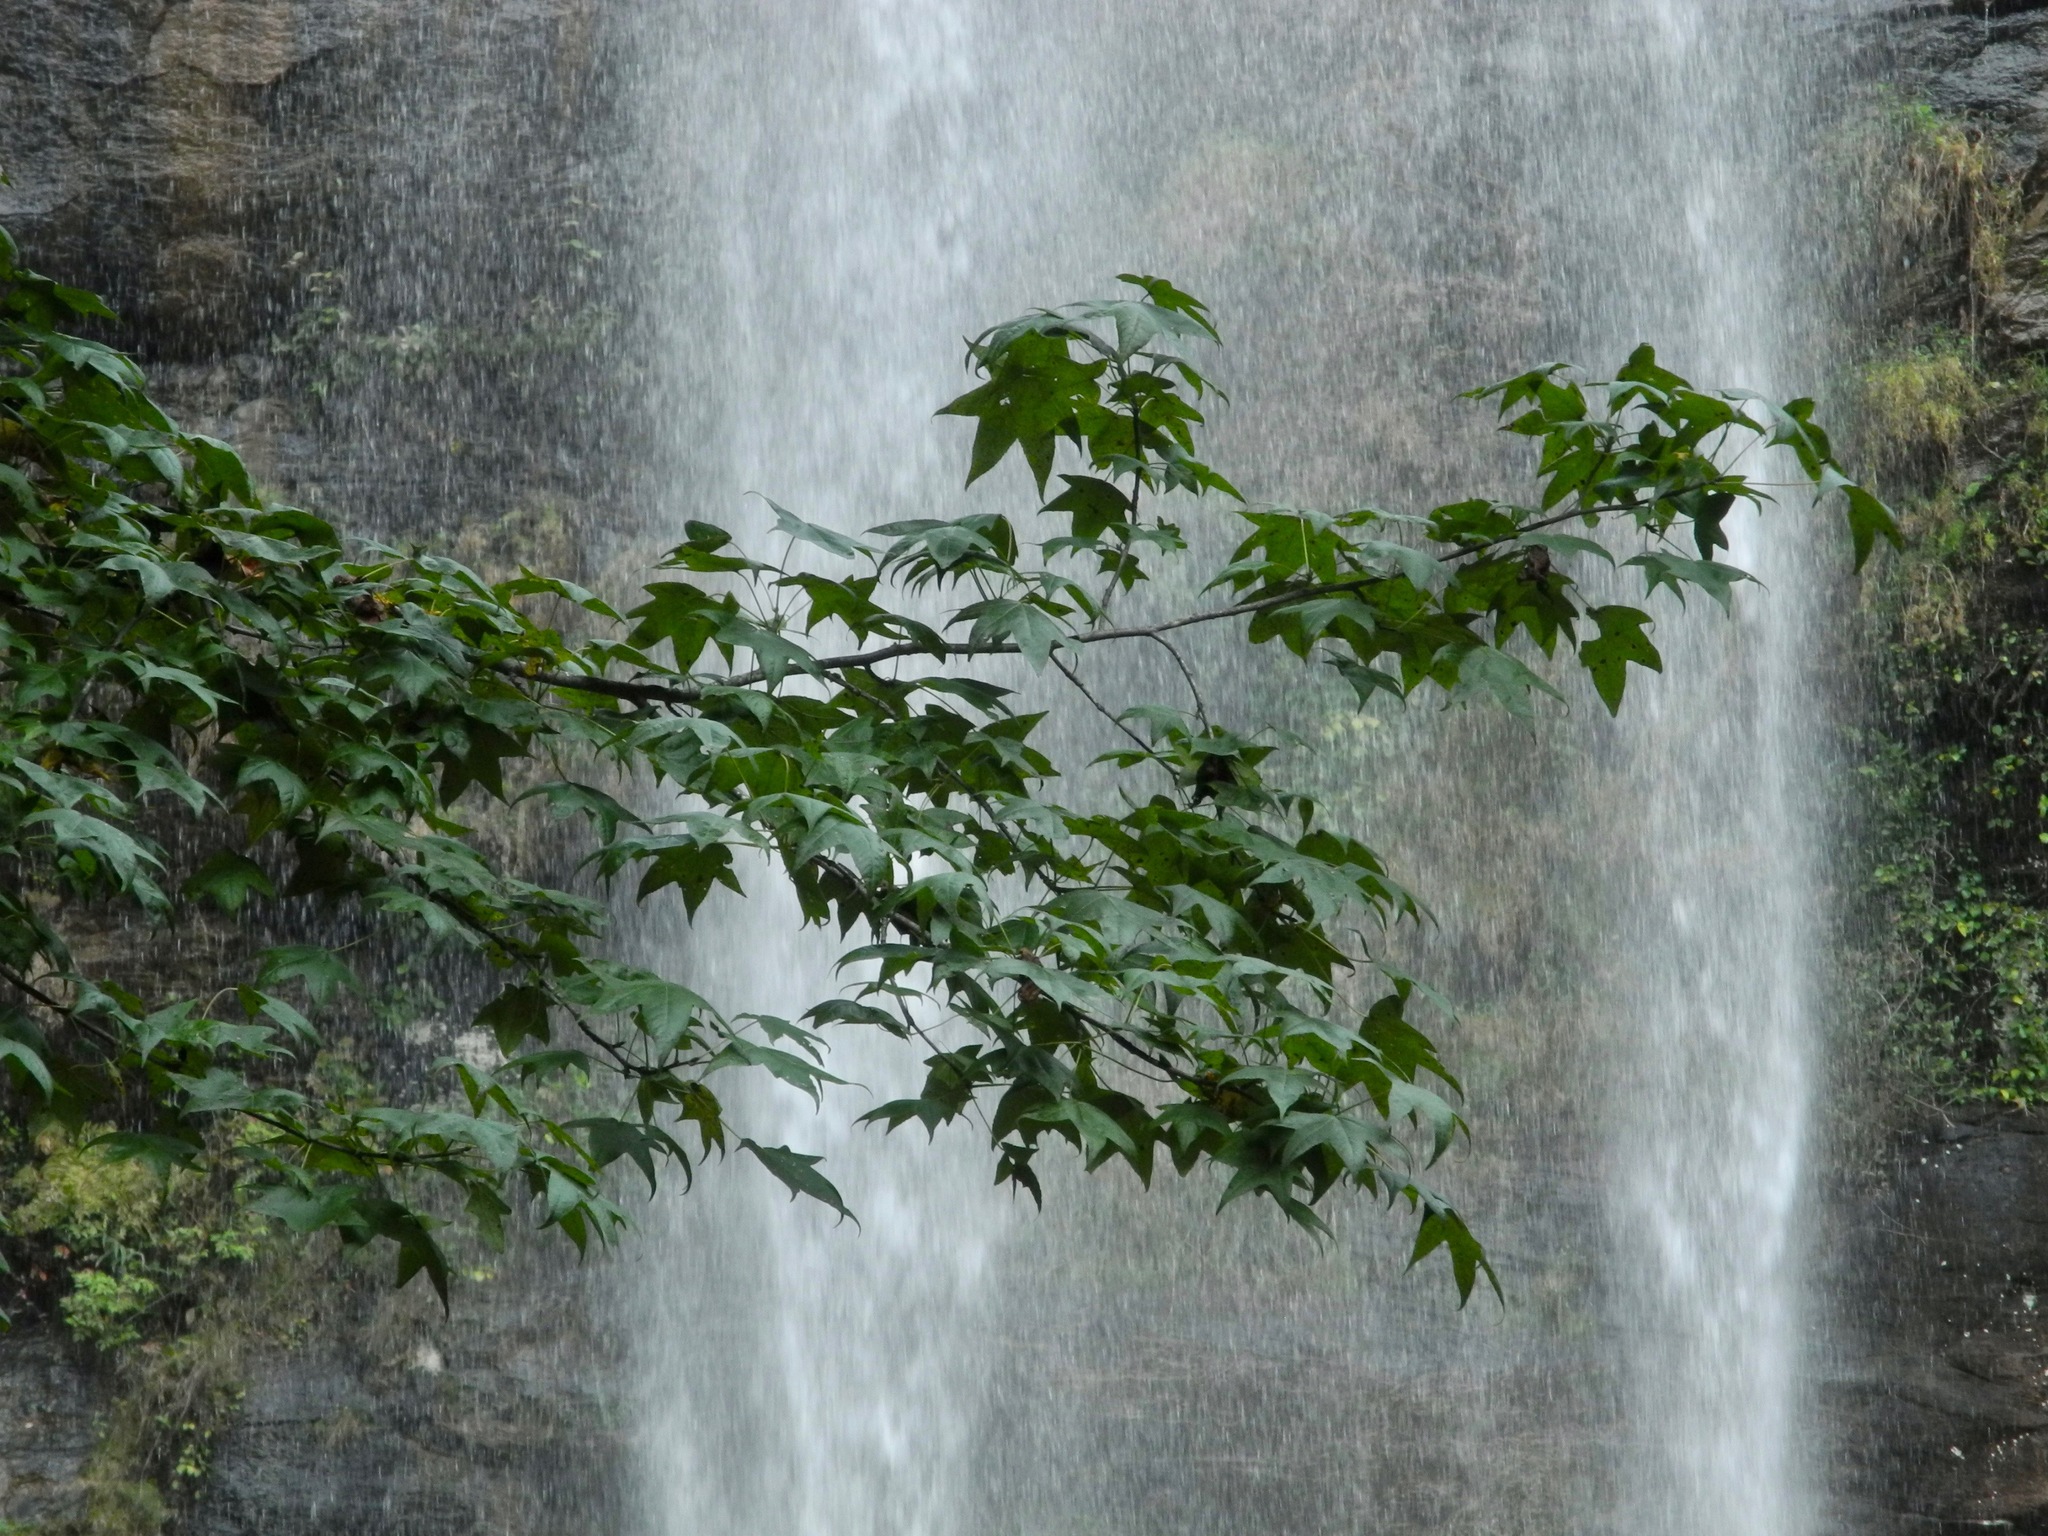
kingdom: Plantae
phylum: Tracheophyta
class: Magnoliopsida
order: Saxifragales
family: Altingiaceae
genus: Liquidambar
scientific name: Liquidambar styraciflua
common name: Sweet gum
